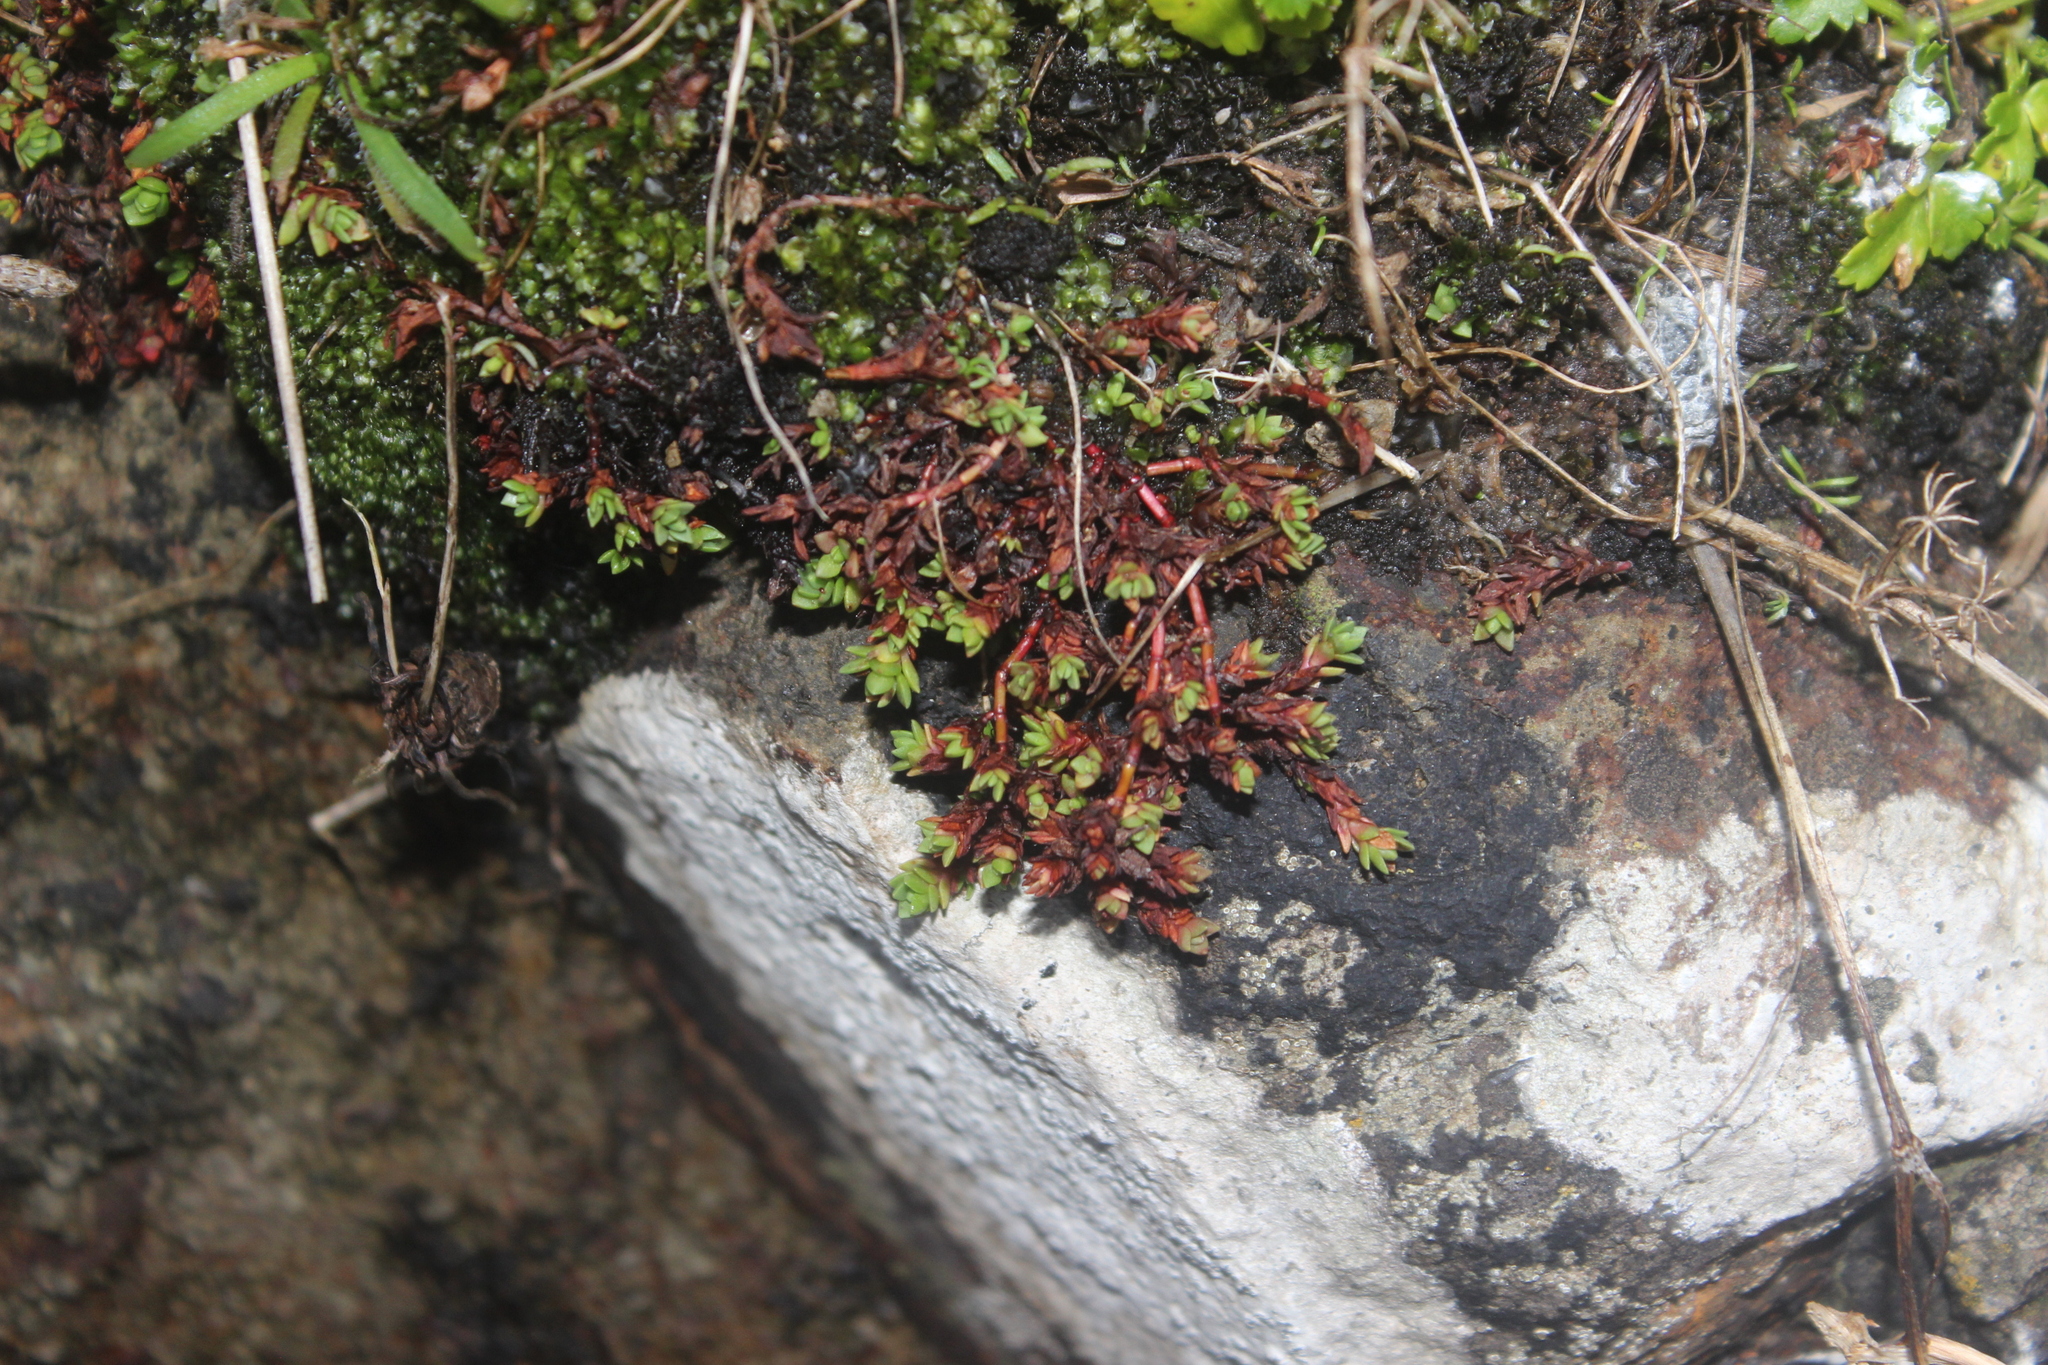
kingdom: Plantae
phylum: Tracheophyta
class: Magnoliopsida
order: Saxifragales
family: Crassulaceae
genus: Crassula
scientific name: Crassula moschata
